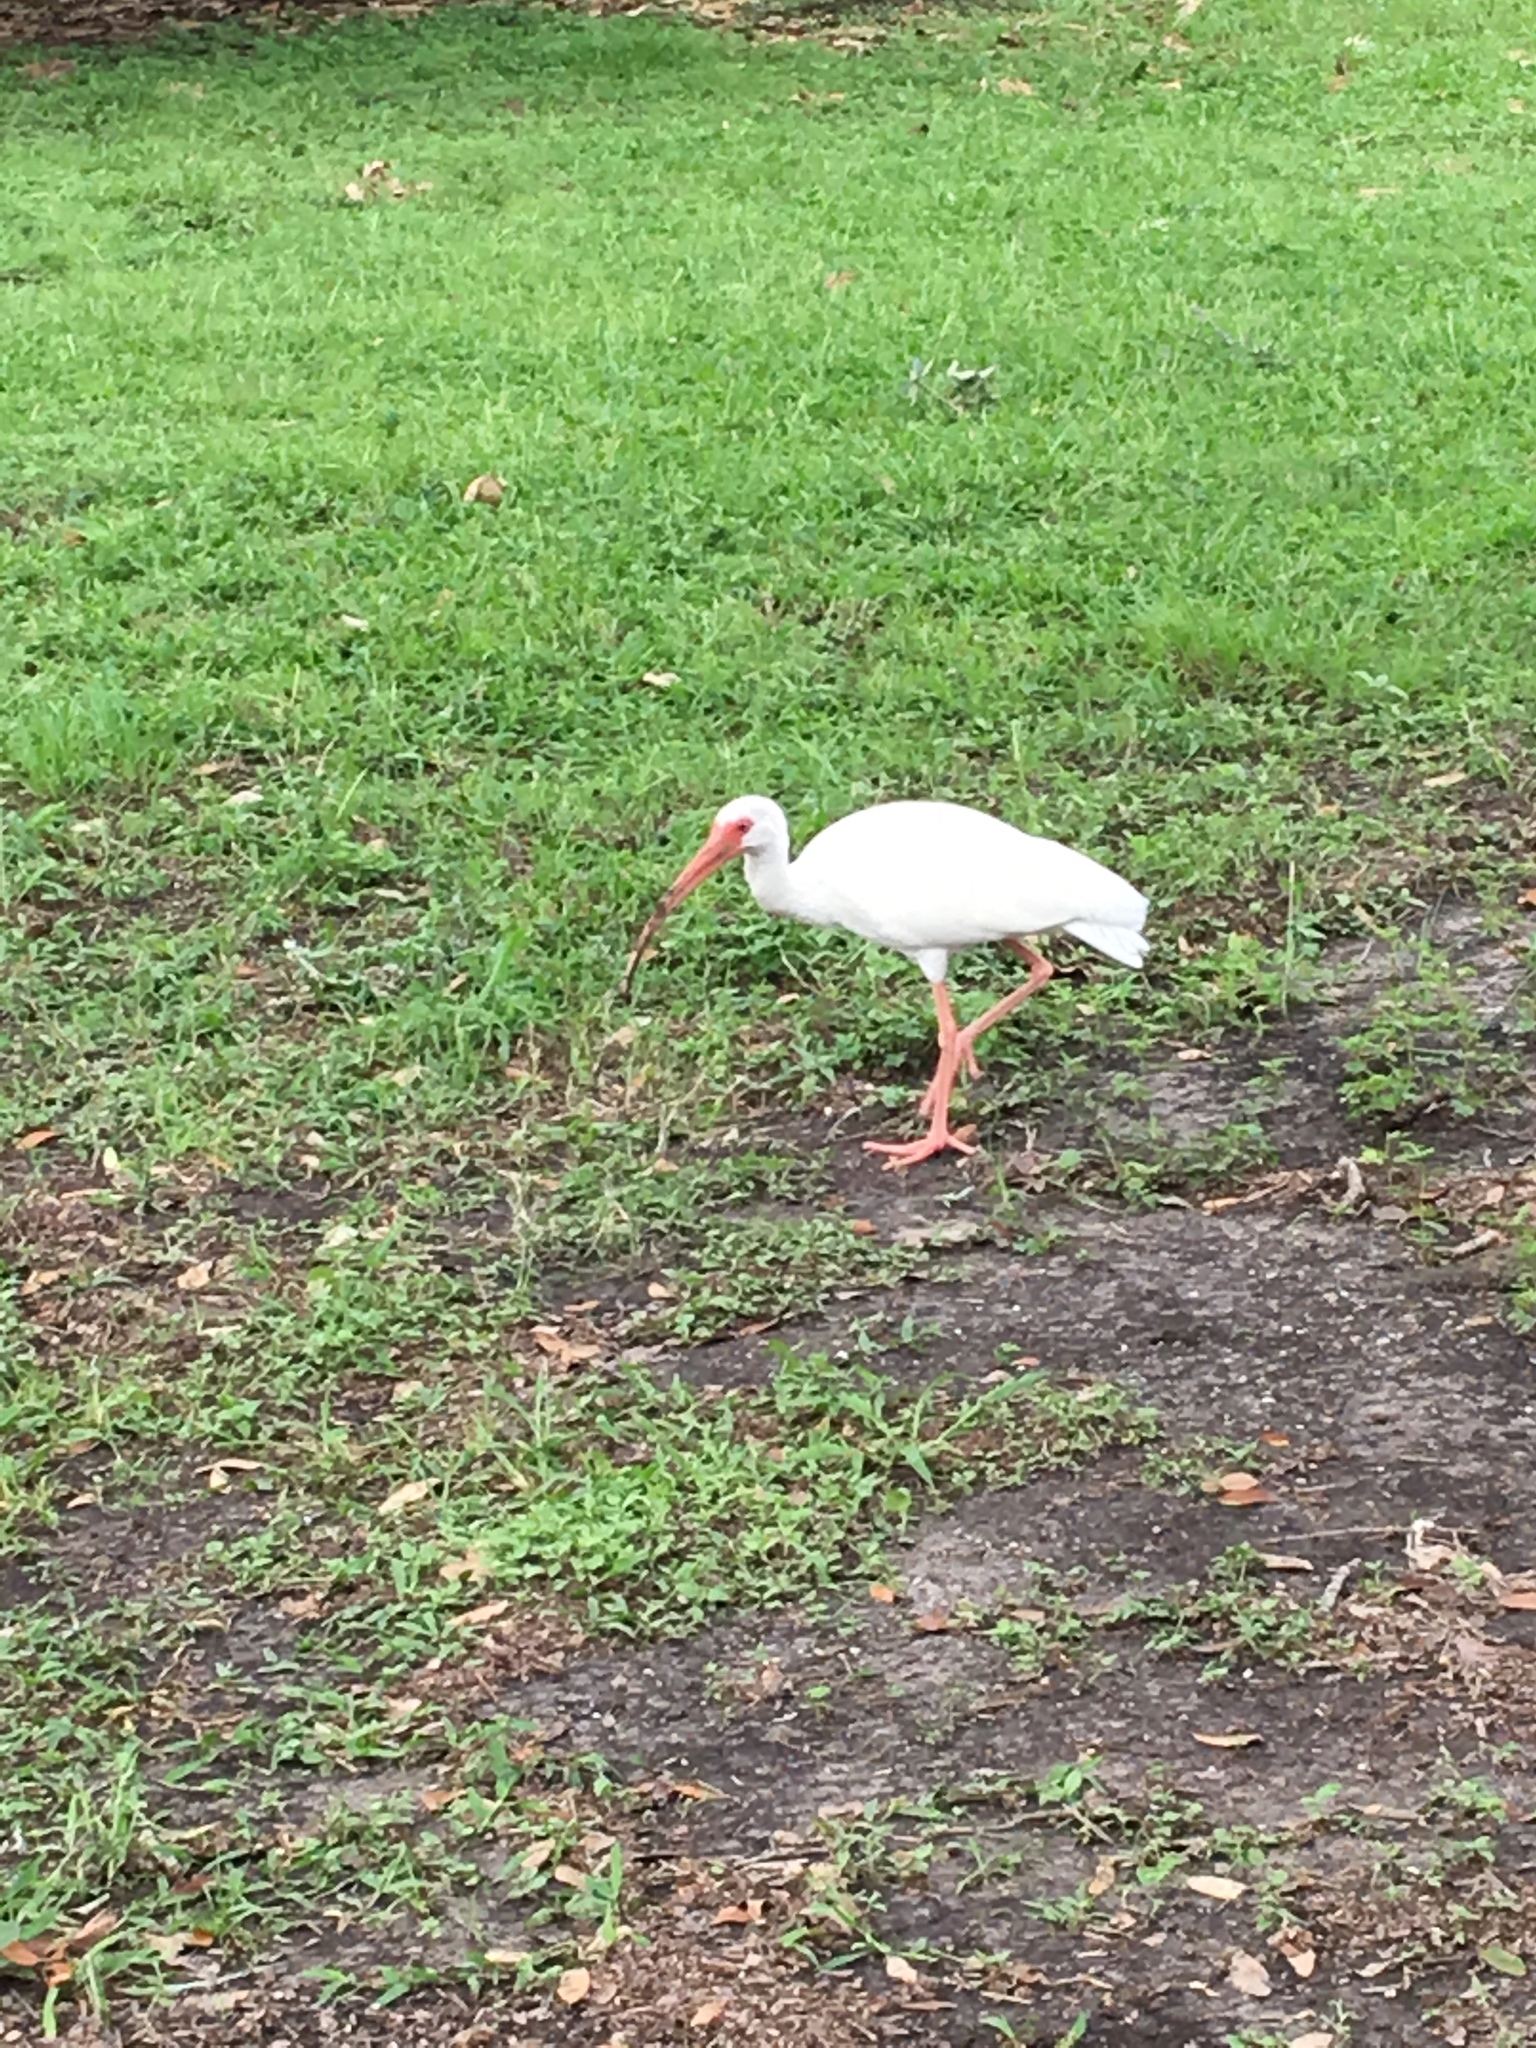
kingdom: Animalia
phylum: Chordata
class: Aves
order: Pelecaniformes
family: Threskiornithidae
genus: Eudocimus
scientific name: Eudocimus albus
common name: White ibis
